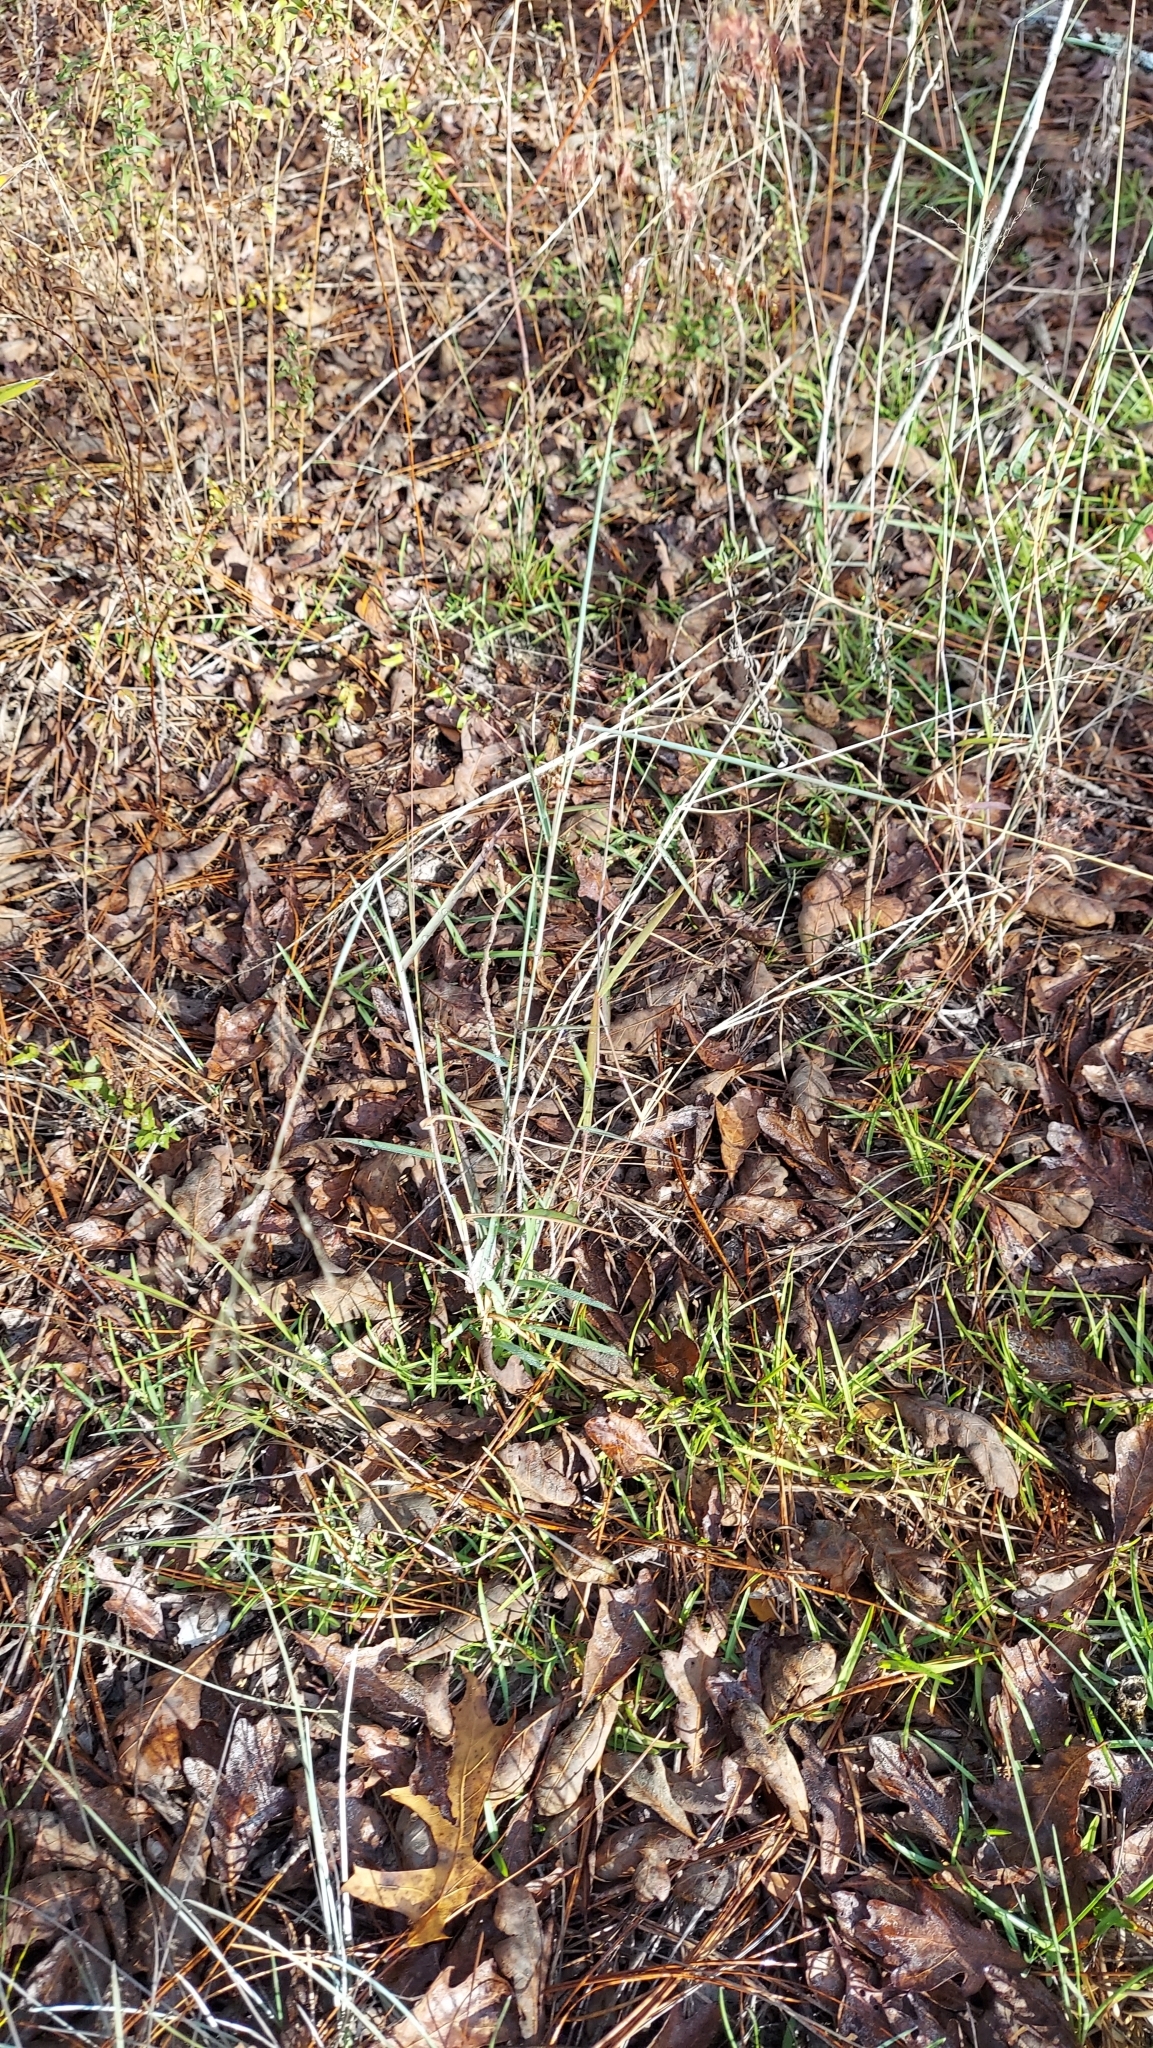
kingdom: Plantae
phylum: Tracheophyta
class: Liliopsida
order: Poales
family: Poaceae
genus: Melinis
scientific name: Melinis repens
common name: Rose natal grass
